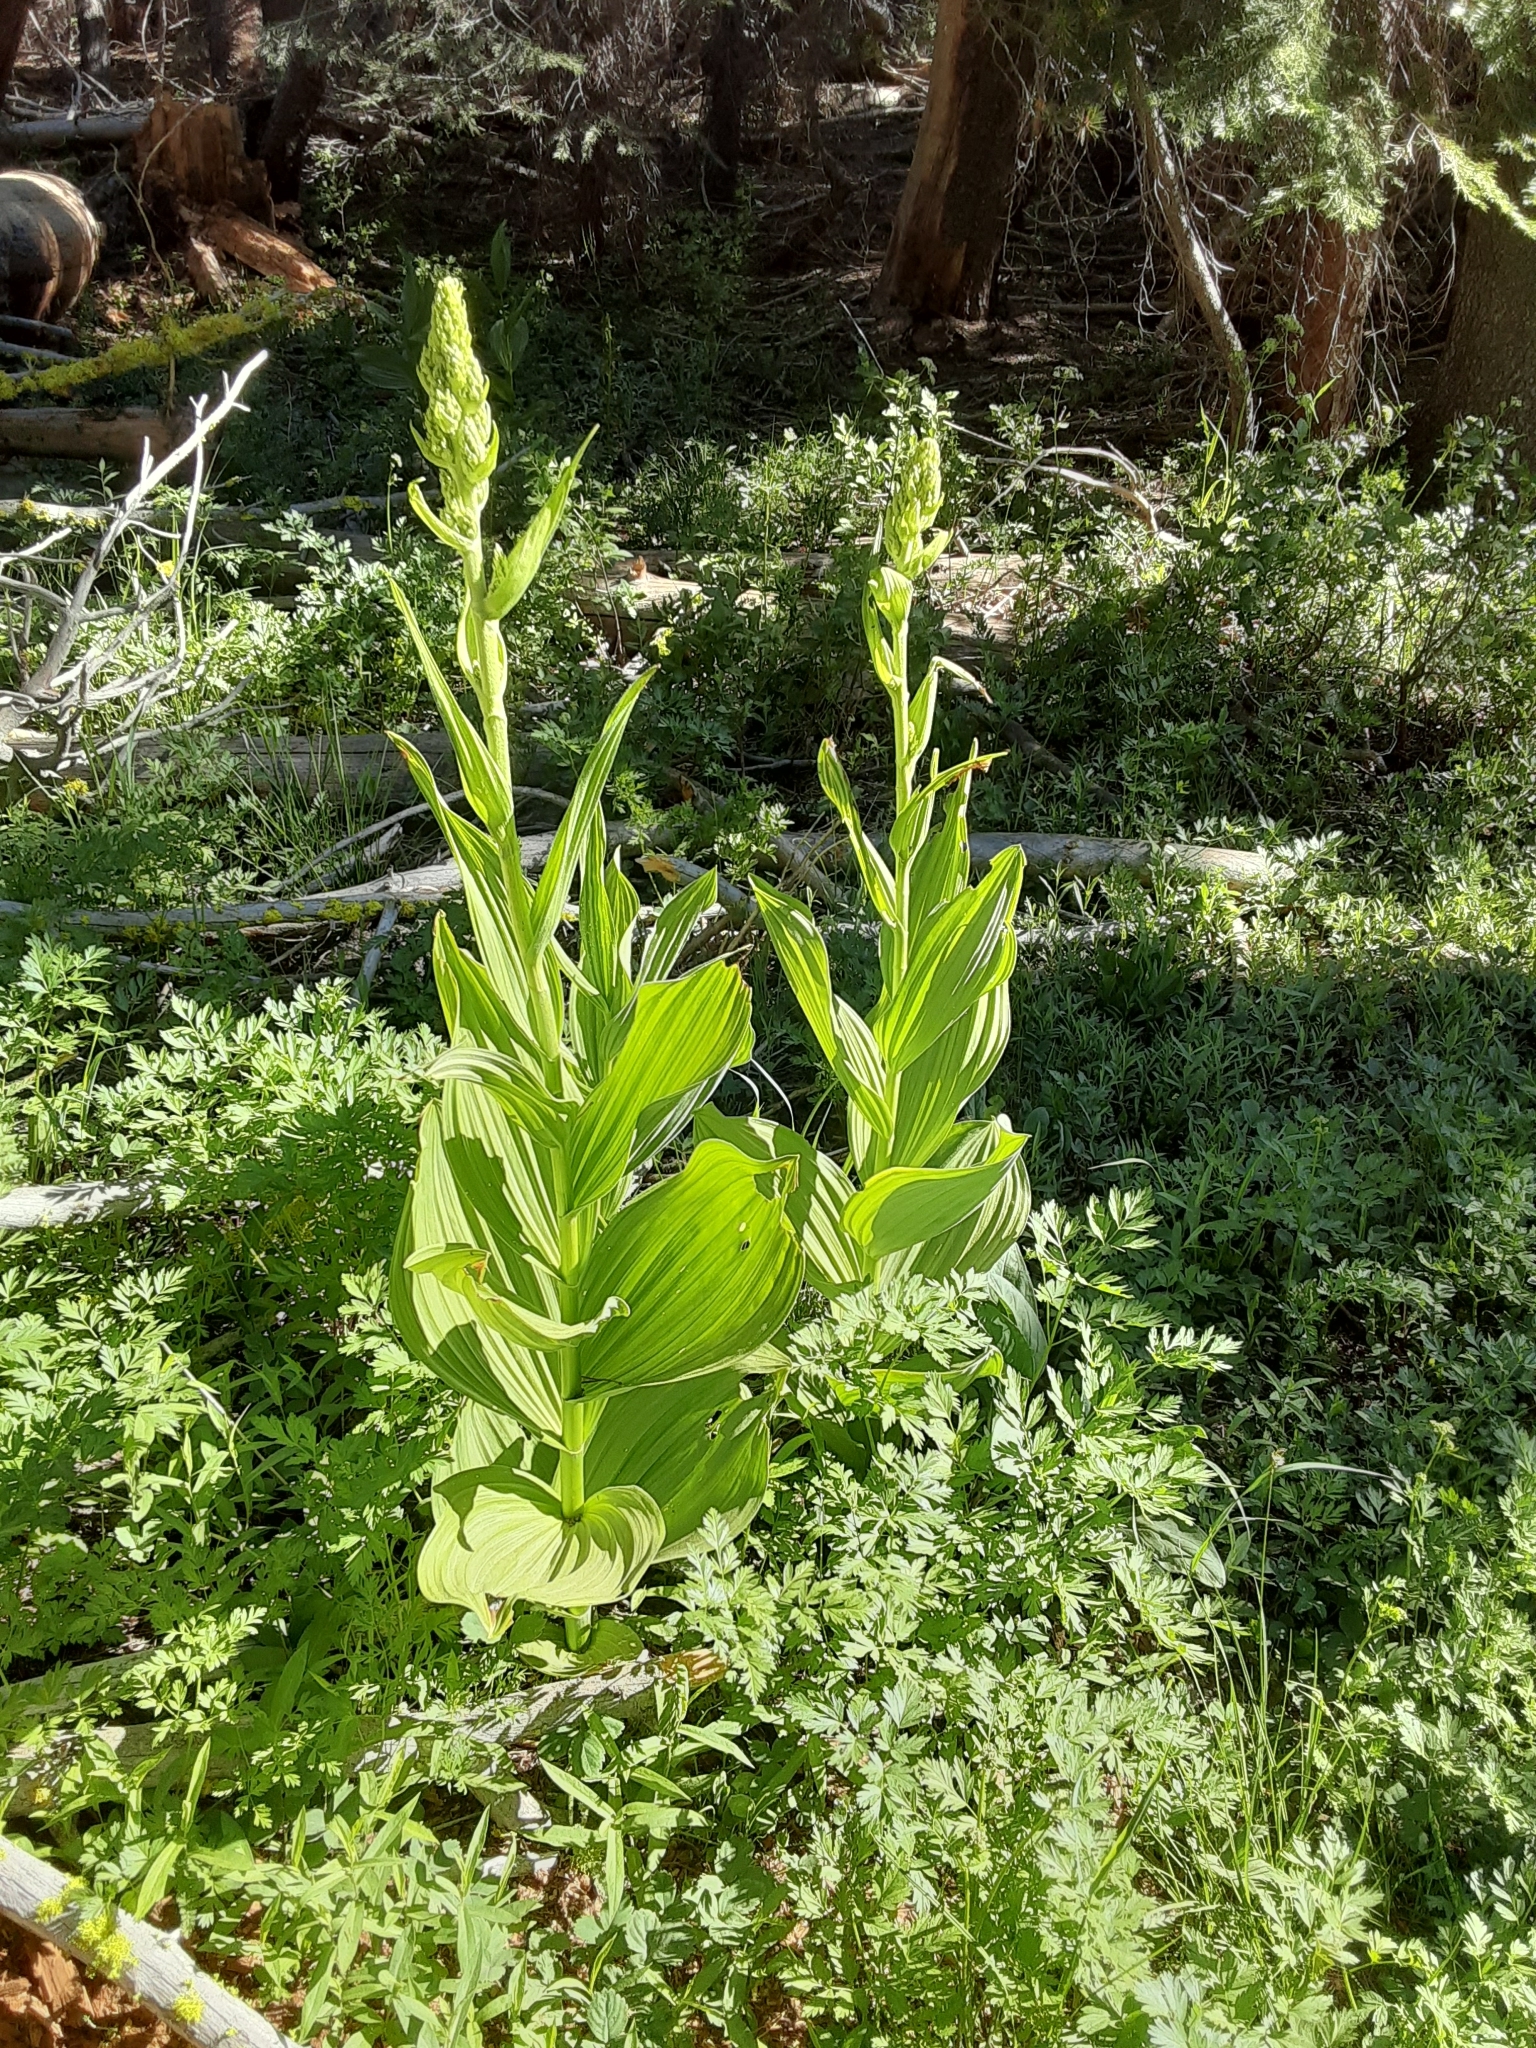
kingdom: Plantae
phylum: Tracheophyta
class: Liliopsida
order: Liliales
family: Melanthiaceae
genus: Veratrum
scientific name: Veratrum californicum
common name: California veratrum
